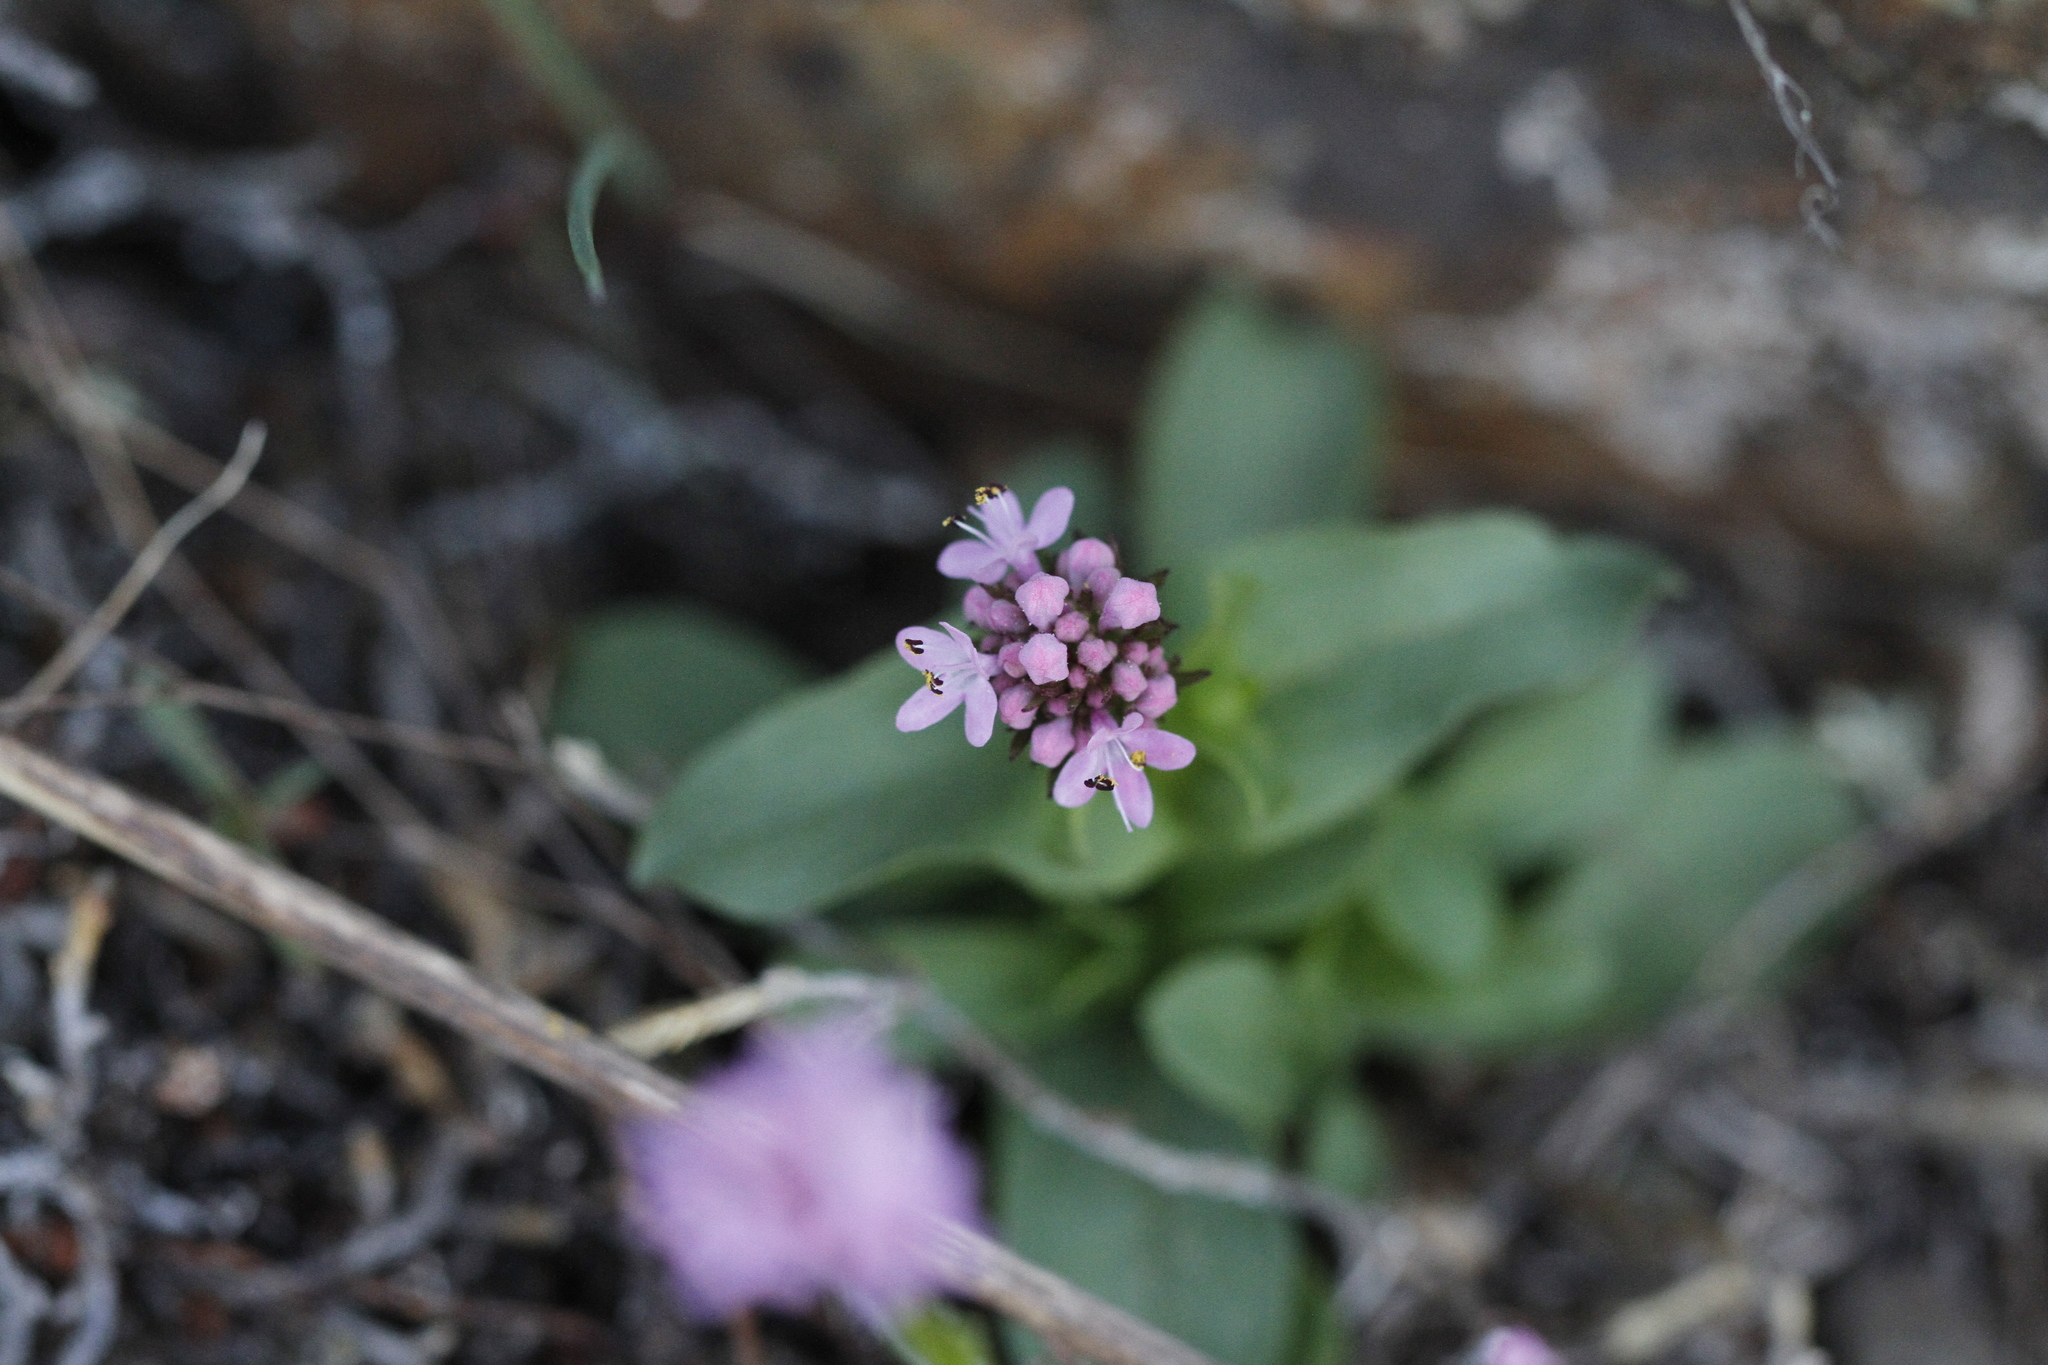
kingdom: Plantae
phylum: Tracheophyta
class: Magnoliopsida
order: Dipsacales
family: Caprifoliaceae
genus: Plectritis
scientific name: Plectritis congesta
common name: Pink plectritis
